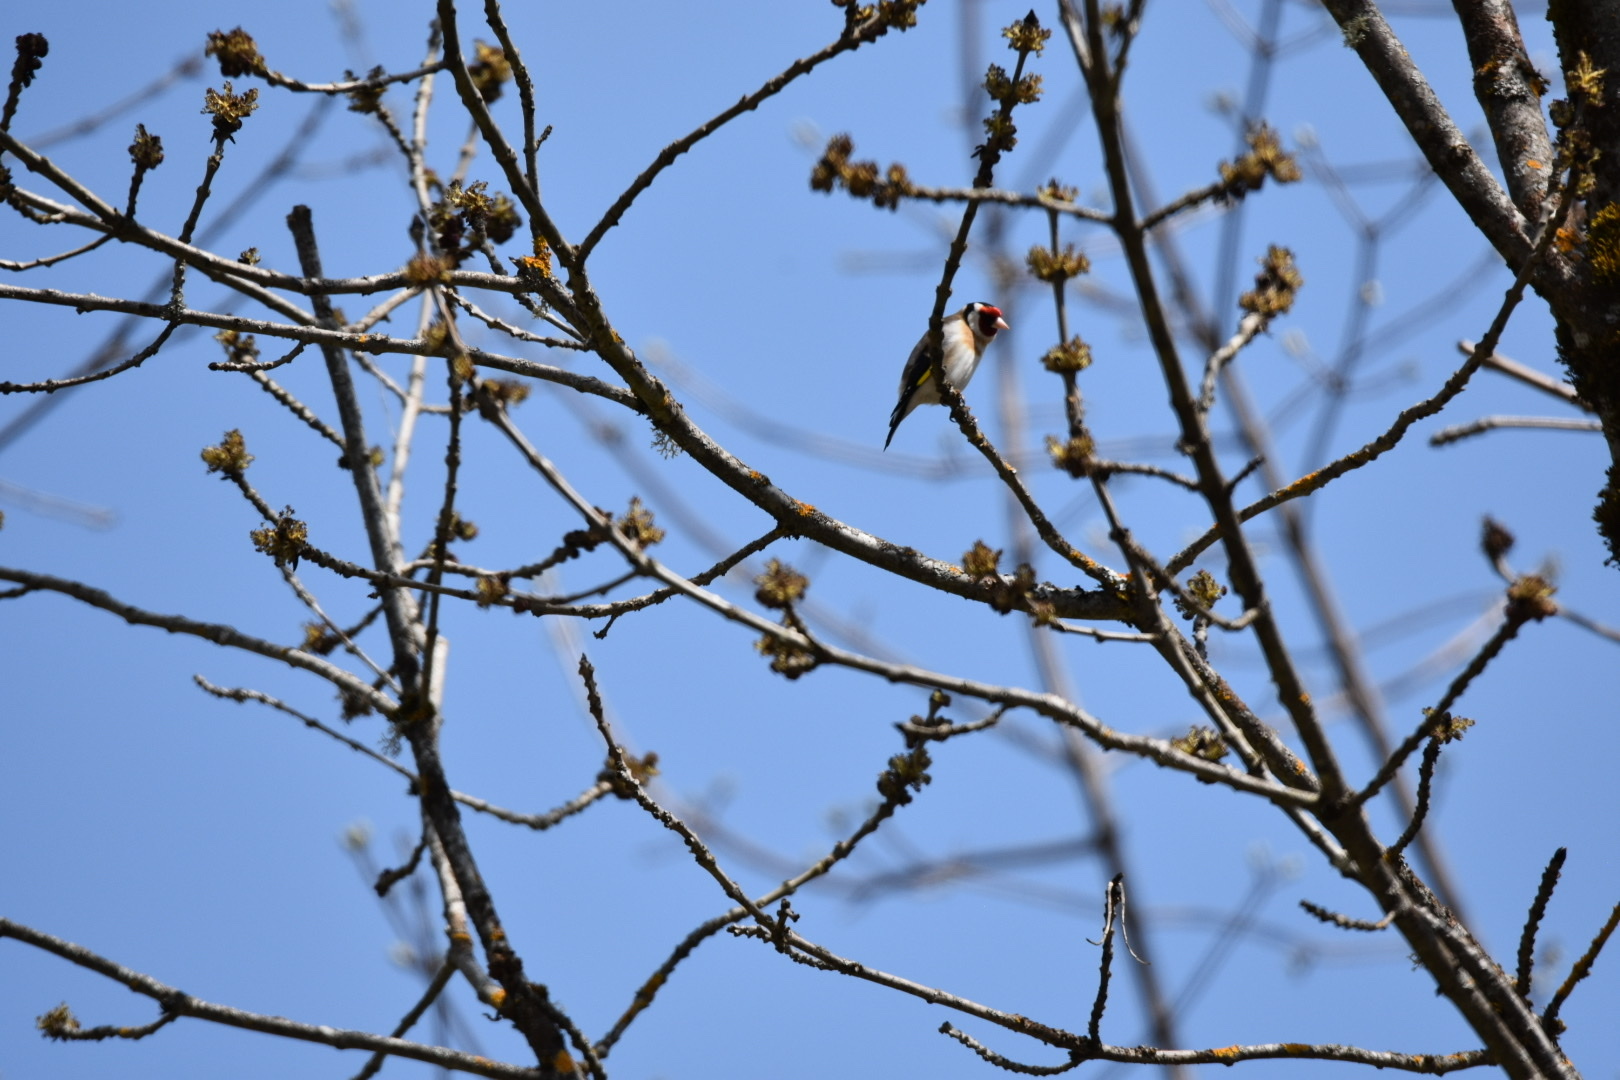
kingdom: Animalia
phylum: Chordata
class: Aves
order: Passeriformes
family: Fringillidae
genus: Carduelis
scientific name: Carduelis carduelis
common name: European goldfinch
